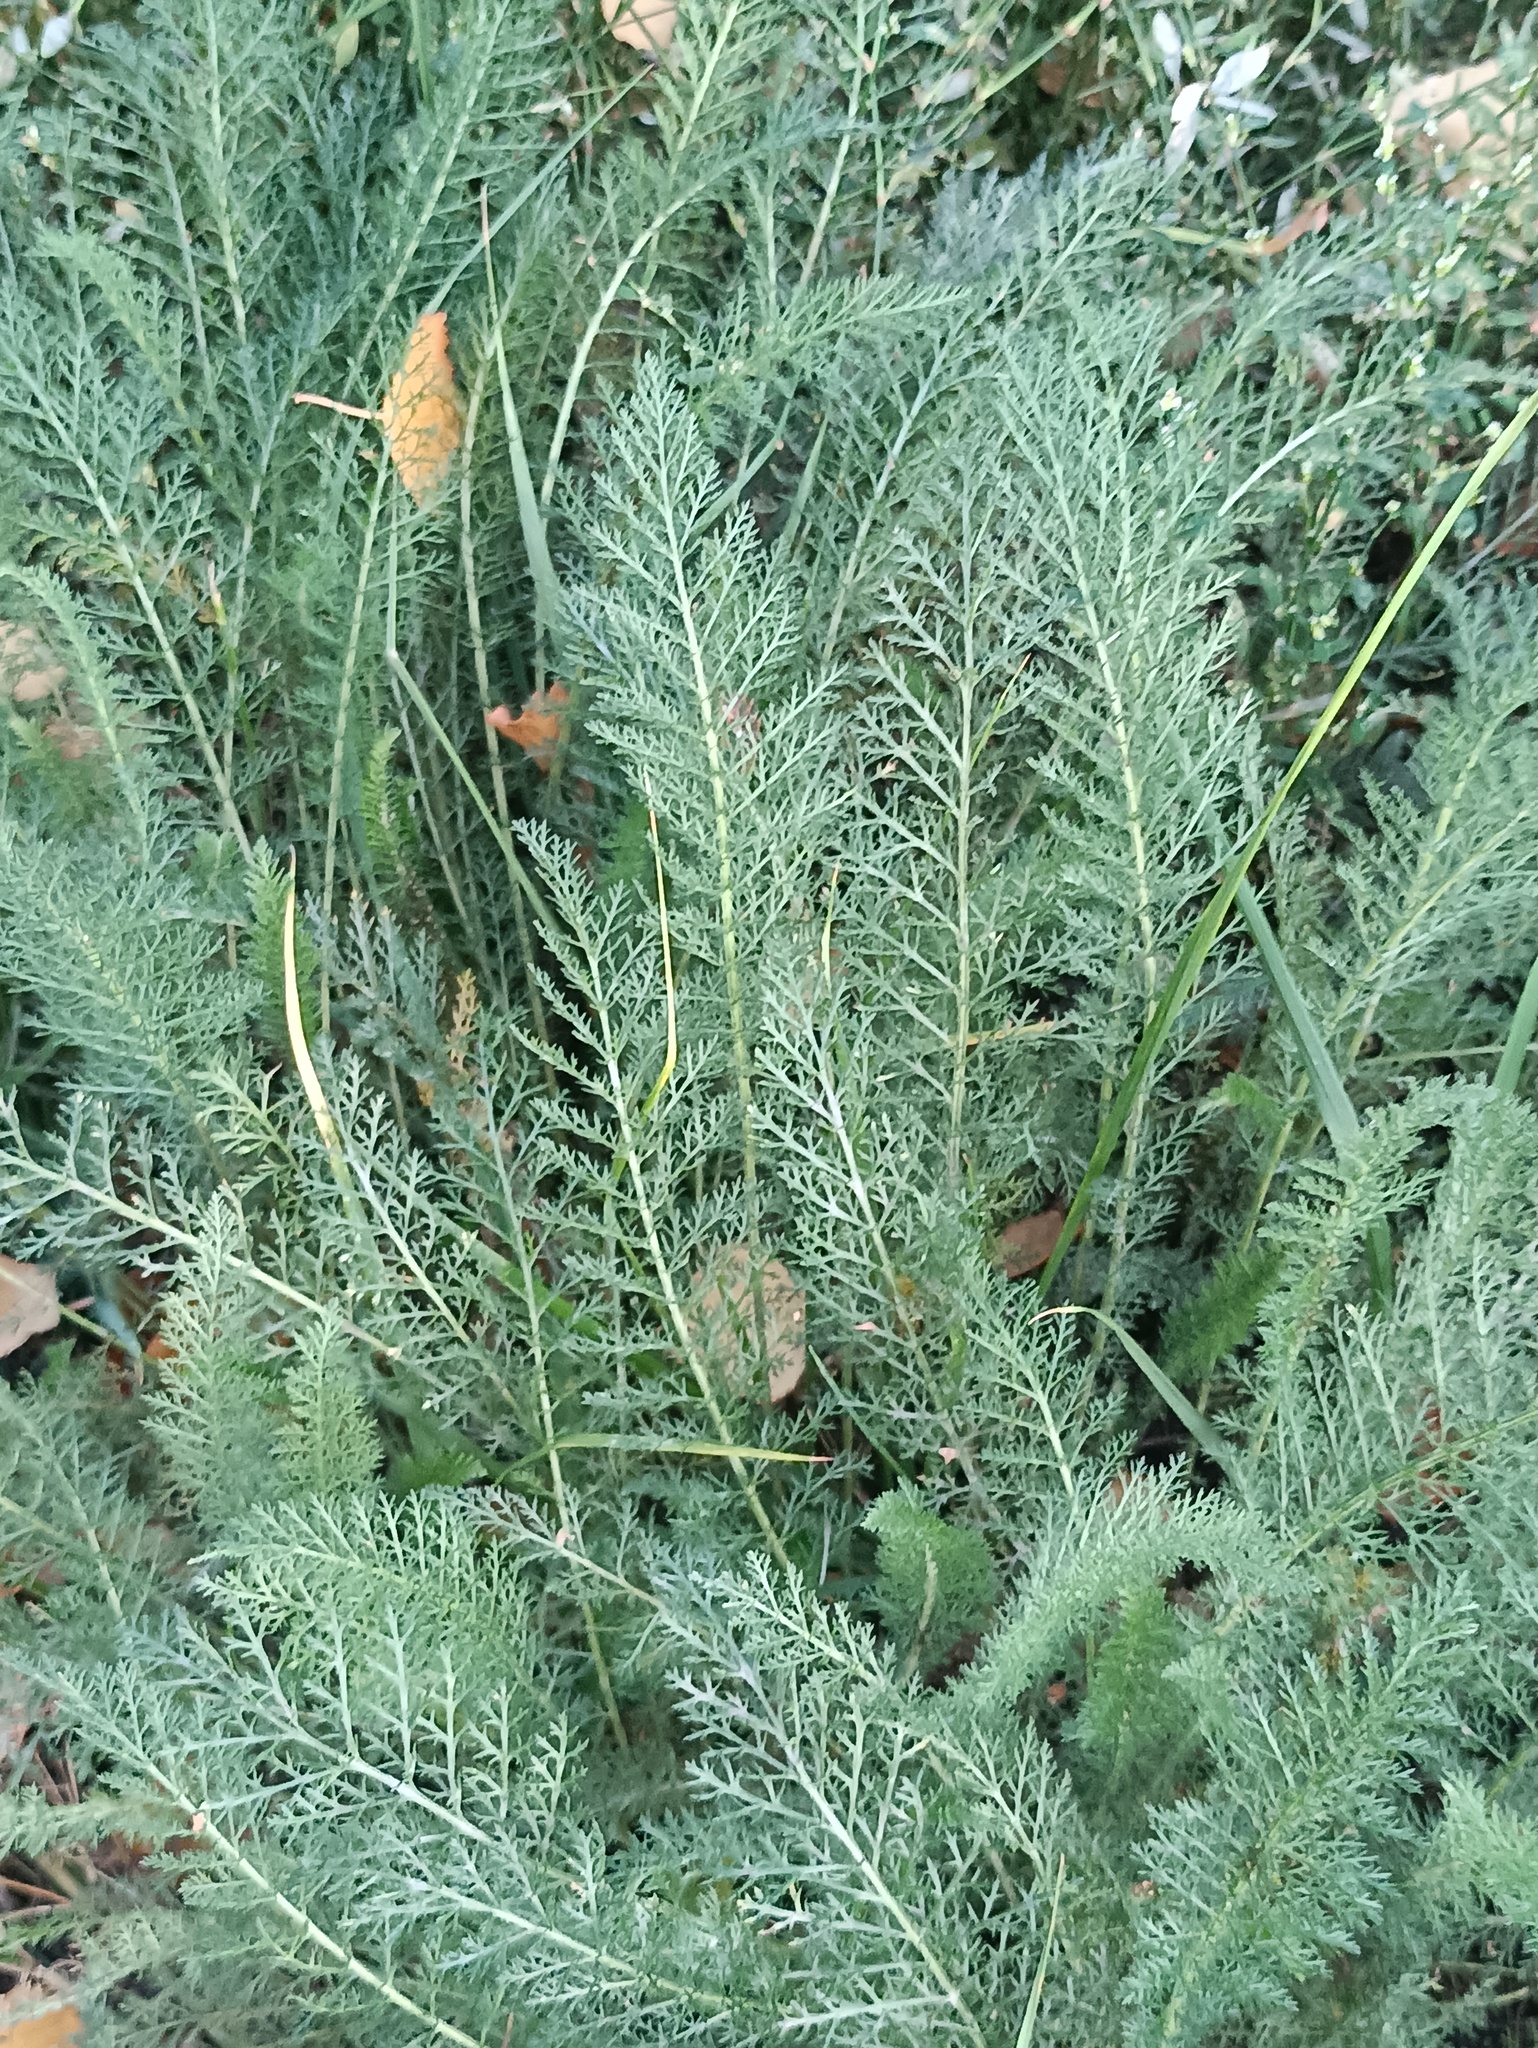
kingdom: Plantae
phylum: Tracheophyta
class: Magnoliopsida
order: Asterales
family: Asteraceae
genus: Achillea
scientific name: Achillea millefolium
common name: Yarrow
